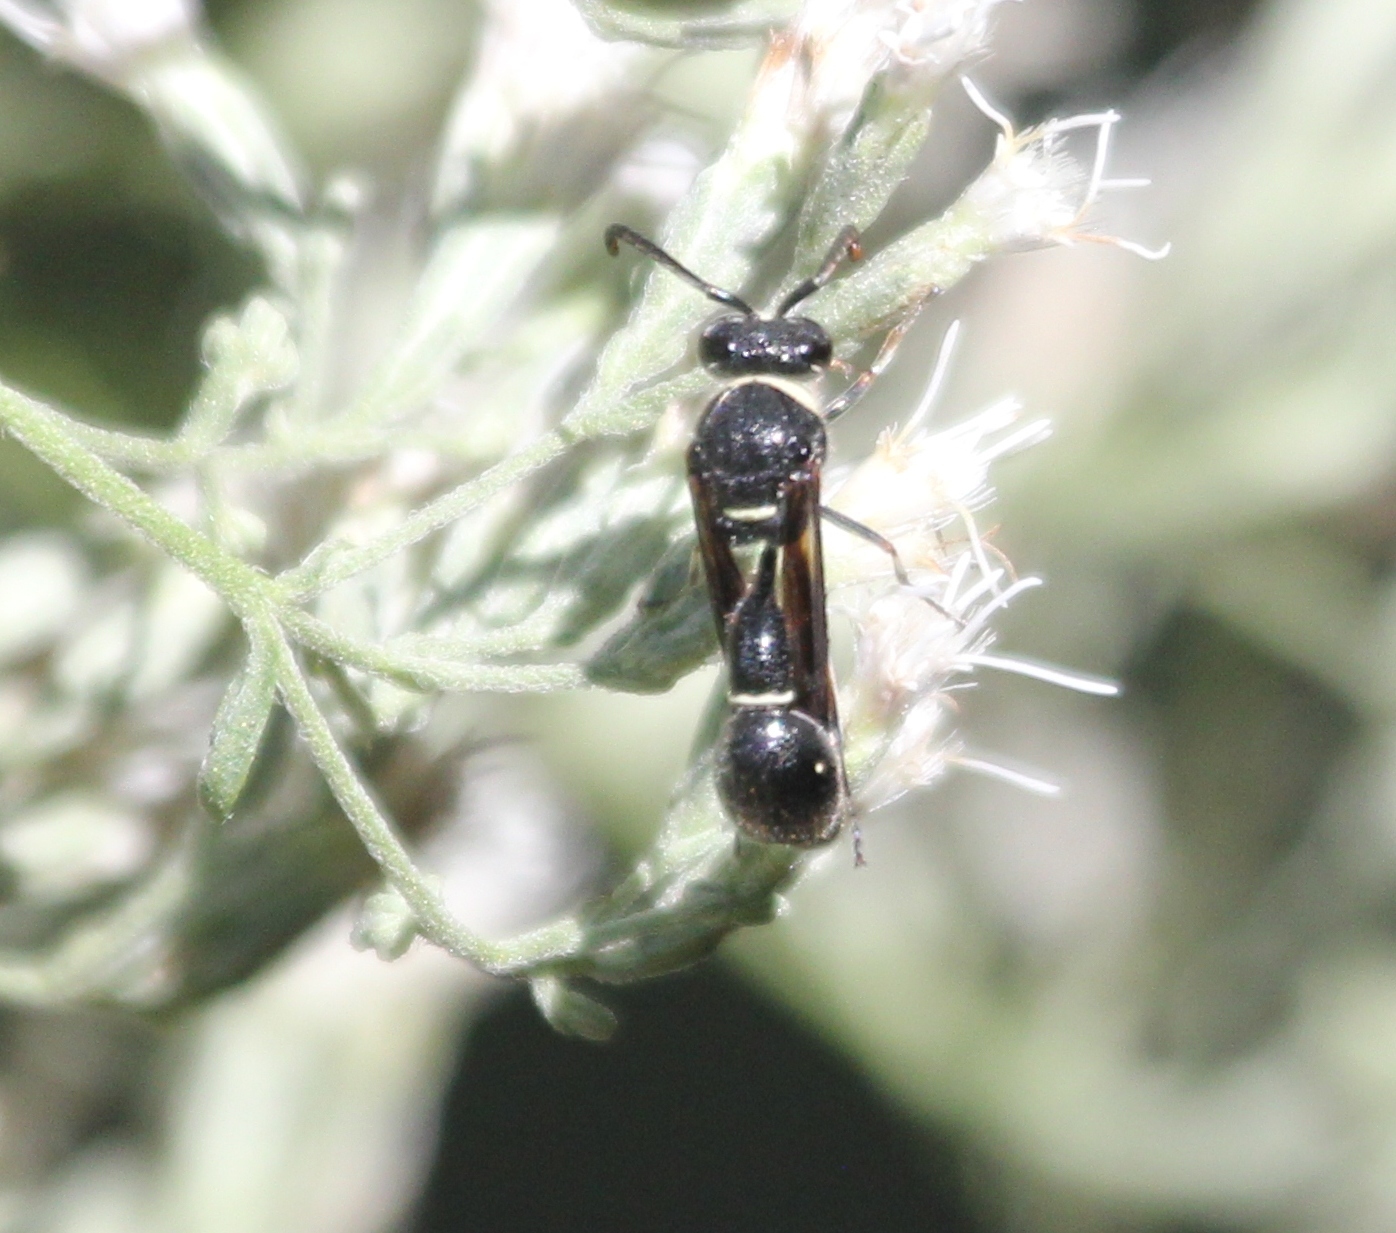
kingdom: Animalia
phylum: Arthropoda
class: Insecta
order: Hymenoptera
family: Vespidae
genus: Eumenes
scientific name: Eumenes fraternus
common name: Fraternal potter wasp
